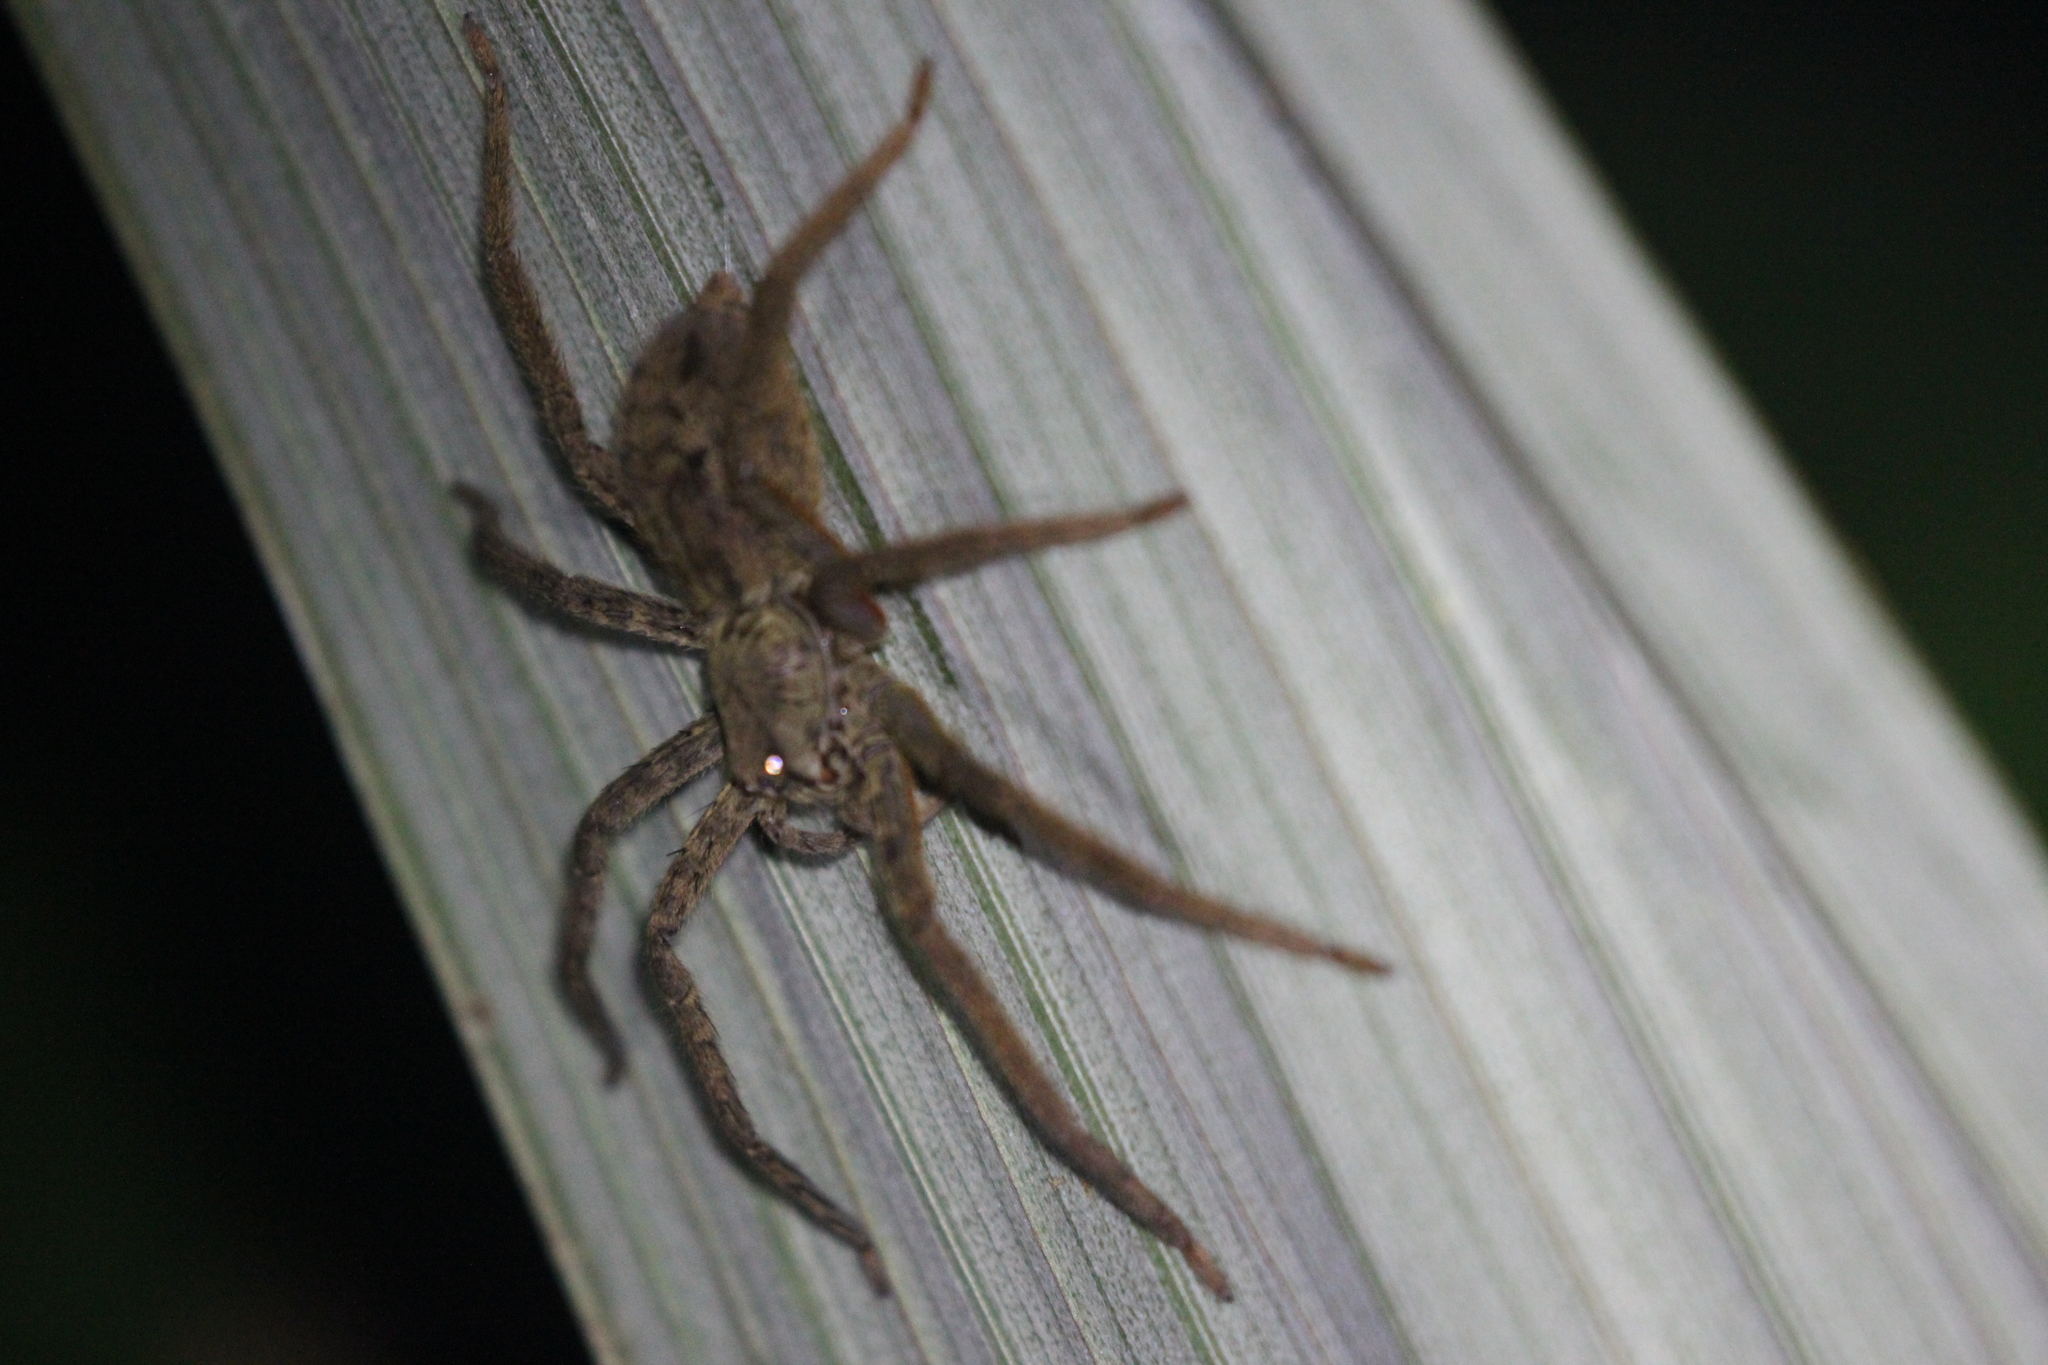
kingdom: Animalia
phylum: Arthropoda
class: Arachnida
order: Araneae
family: Trechaleidae
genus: Cupiennius
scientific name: Cupiennius coccineus
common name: Wandering spiders
